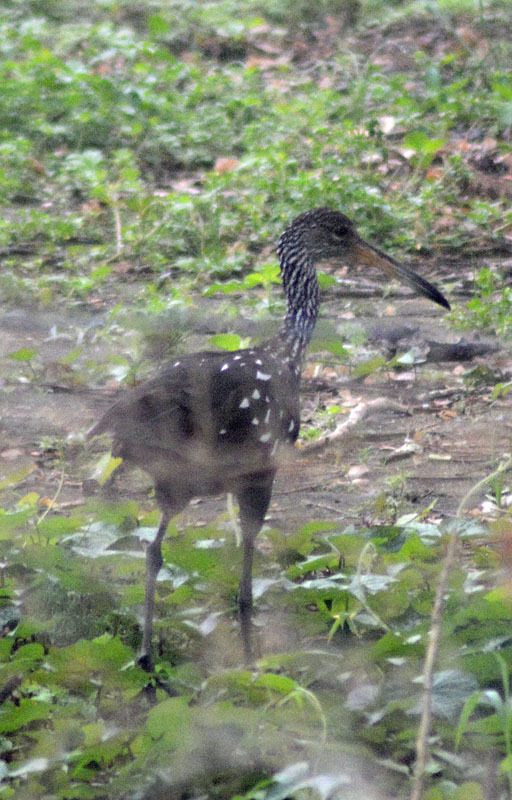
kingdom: Animalia
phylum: Chordata
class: Aves
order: Gruiformes
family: Aramidae
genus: Aramus
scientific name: Aramus guarauna
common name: Limpkin
